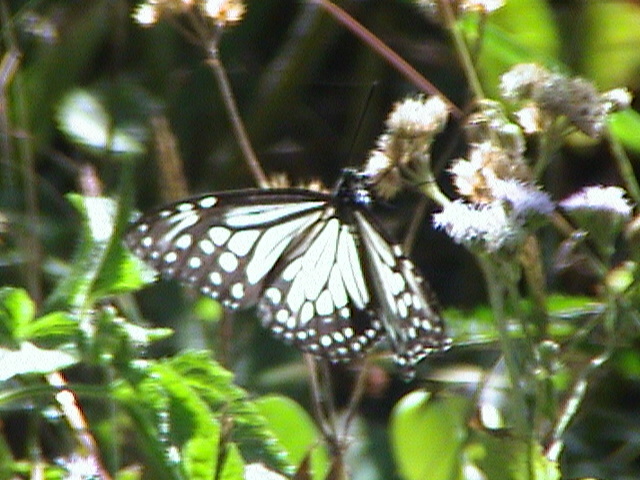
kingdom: Animalia
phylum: Arthropoda
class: Insecta
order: Lepidoptera
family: Nymphalidae
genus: Parantica
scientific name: Parantica aglea
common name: Glassy tiger
